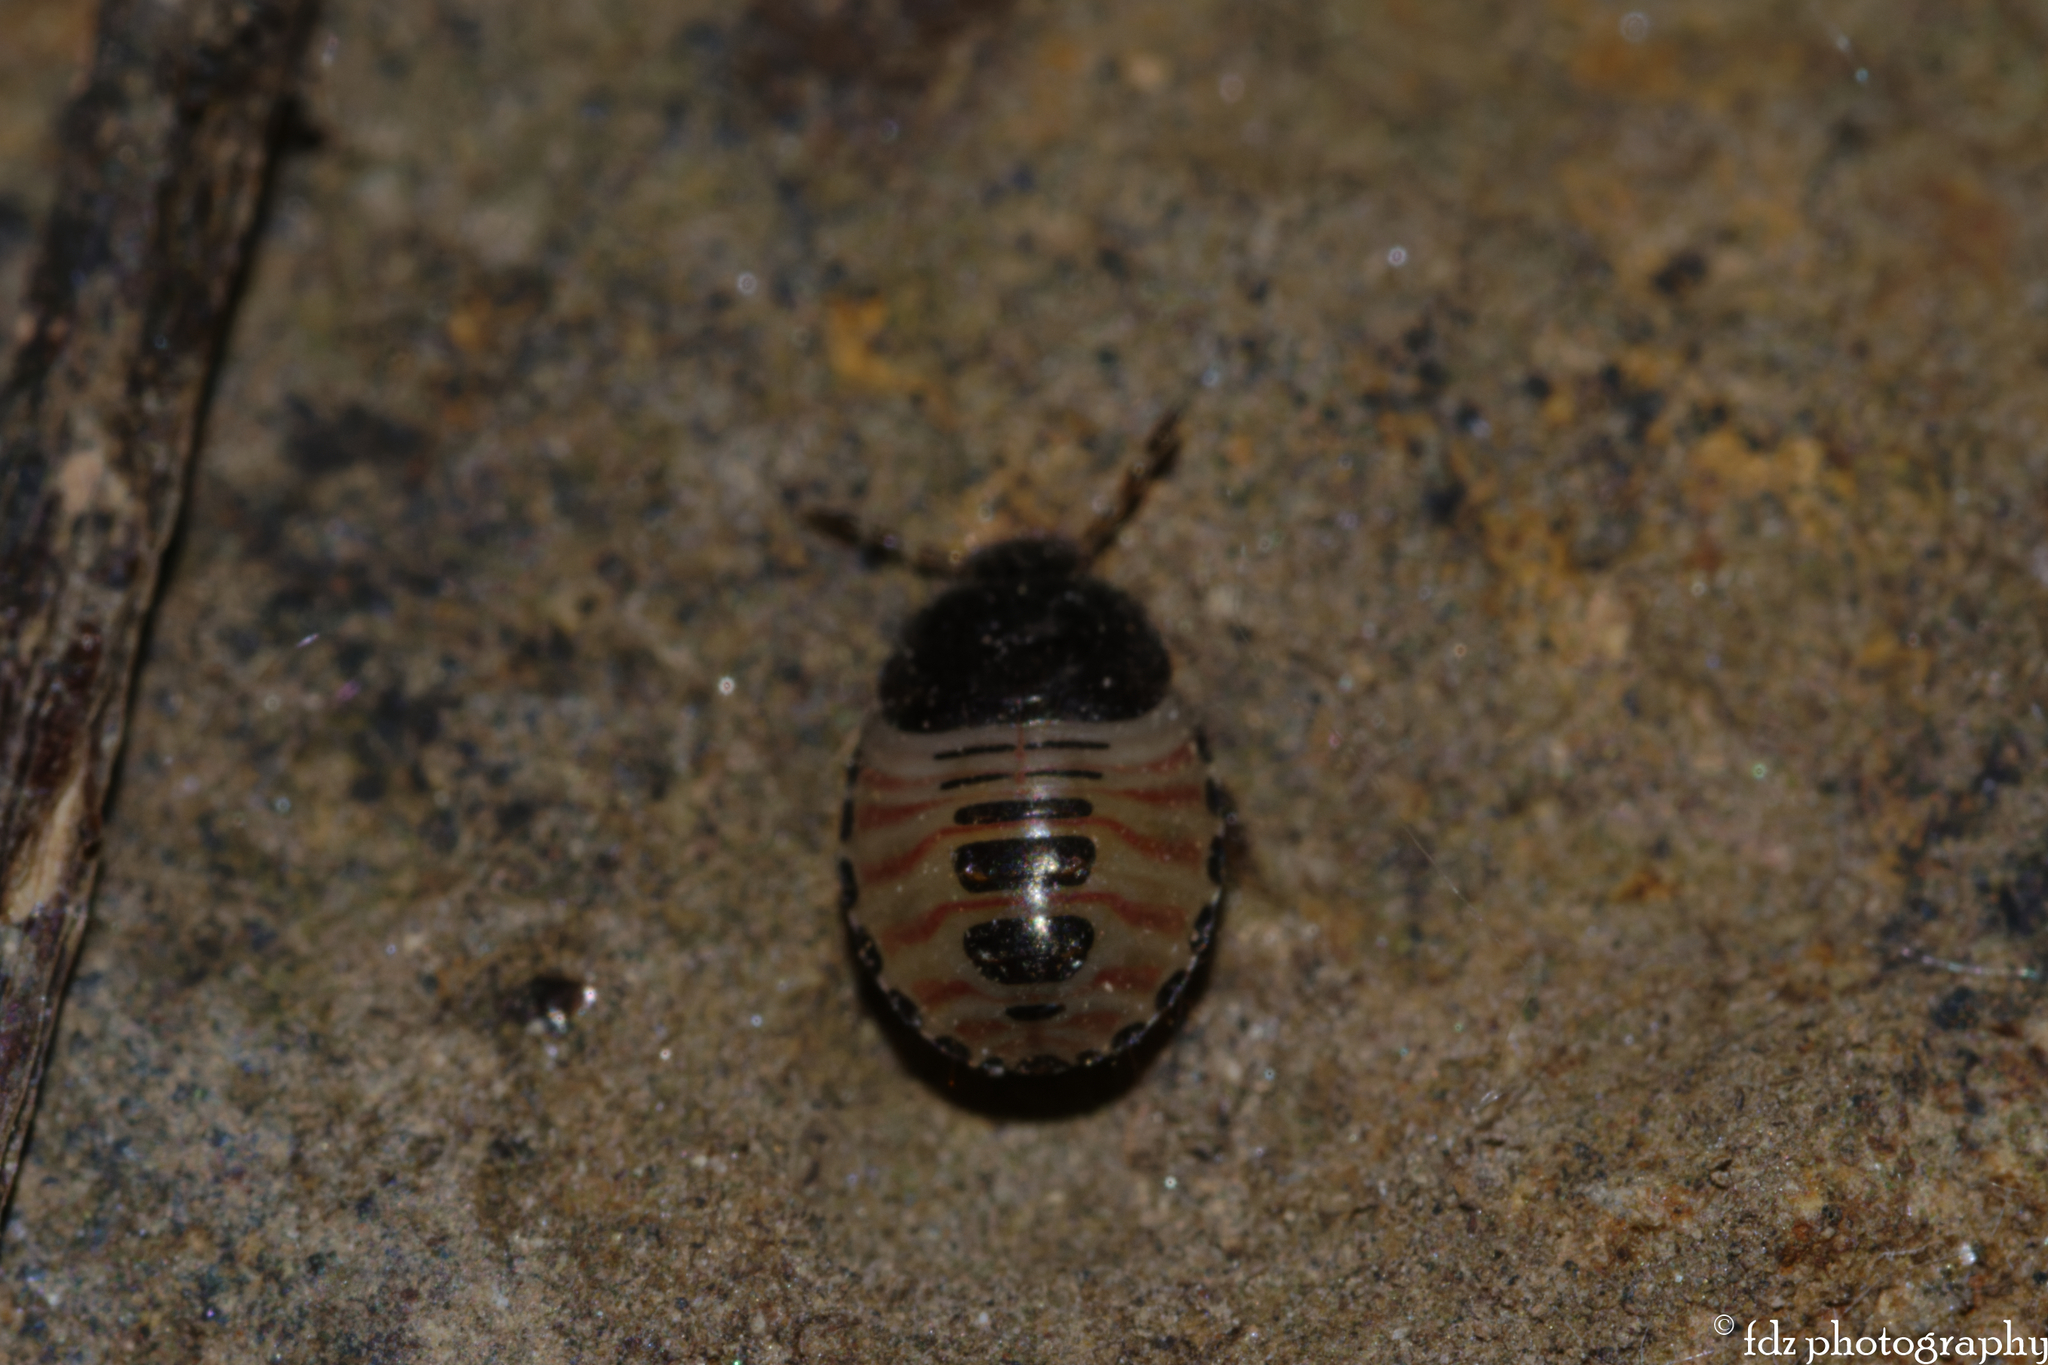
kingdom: Animalia
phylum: Arthropoda
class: Insecta
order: Hemiptera
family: Cydnidae
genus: Macroscytus
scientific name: Macroscytus brunneus
